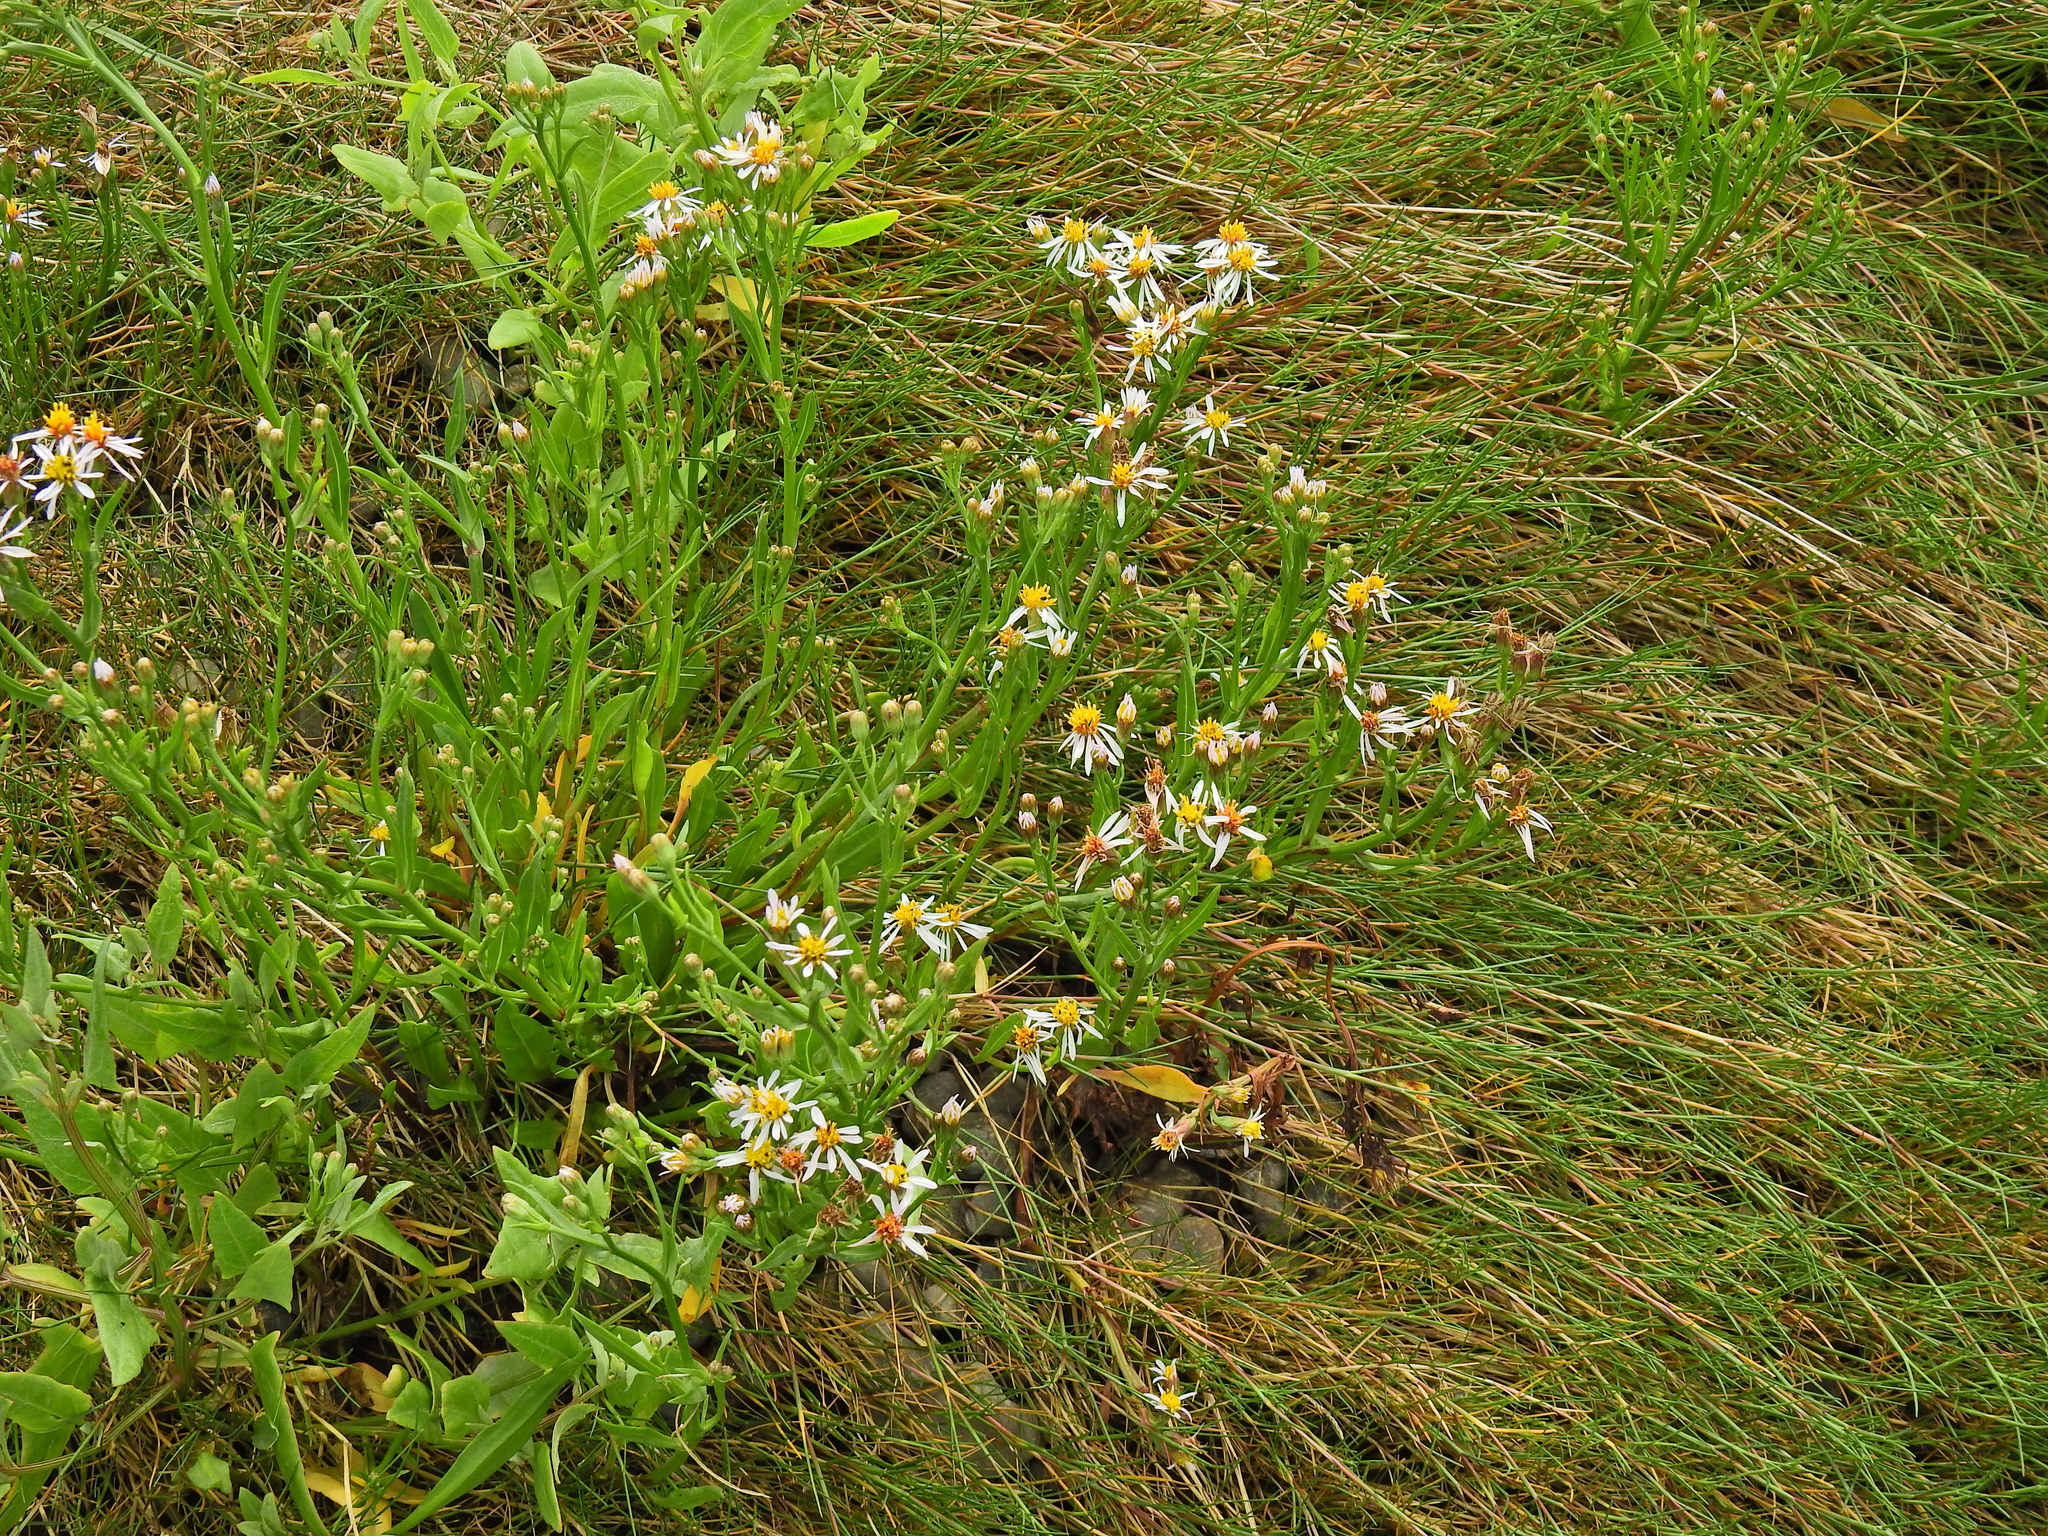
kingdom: Plantae
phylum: Tracheophyta
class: Magnoliopsida
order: Asterales
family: Asteraceae
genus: Tripolium
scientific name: Tripolium pannonicum
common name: Sea aster
